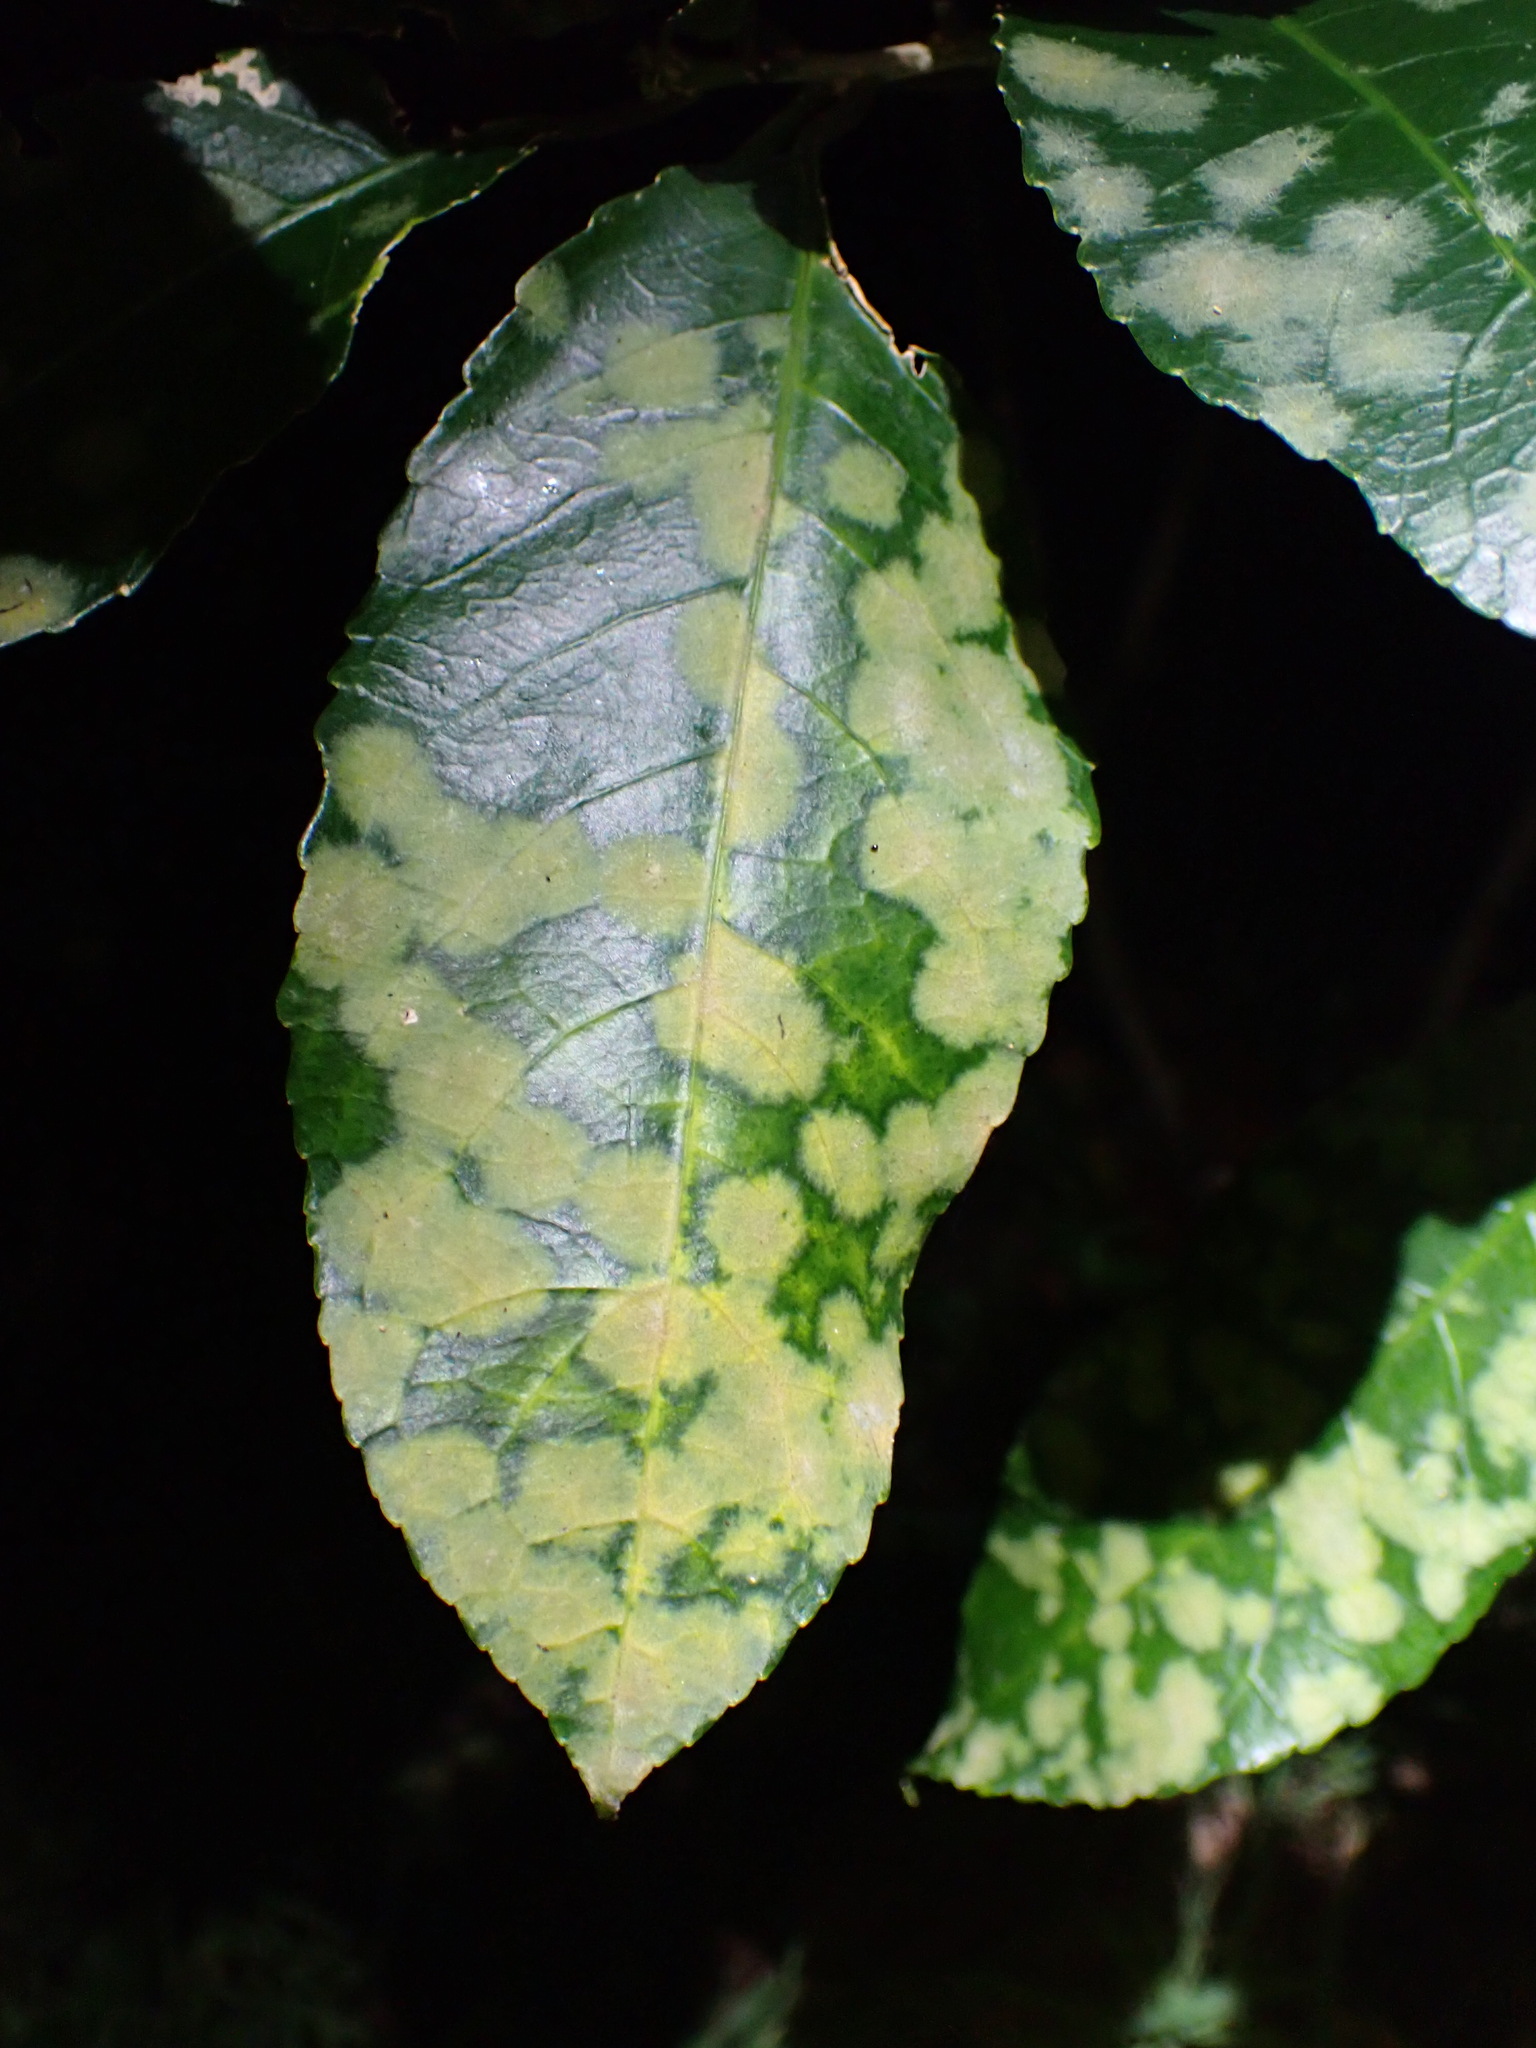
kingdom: Plantae
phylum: Chlorophyta
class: Ulvophyceae
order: Trentepohliales
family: Trentepohliaceae
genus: Cephaleuros
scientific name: Cephaleuros
